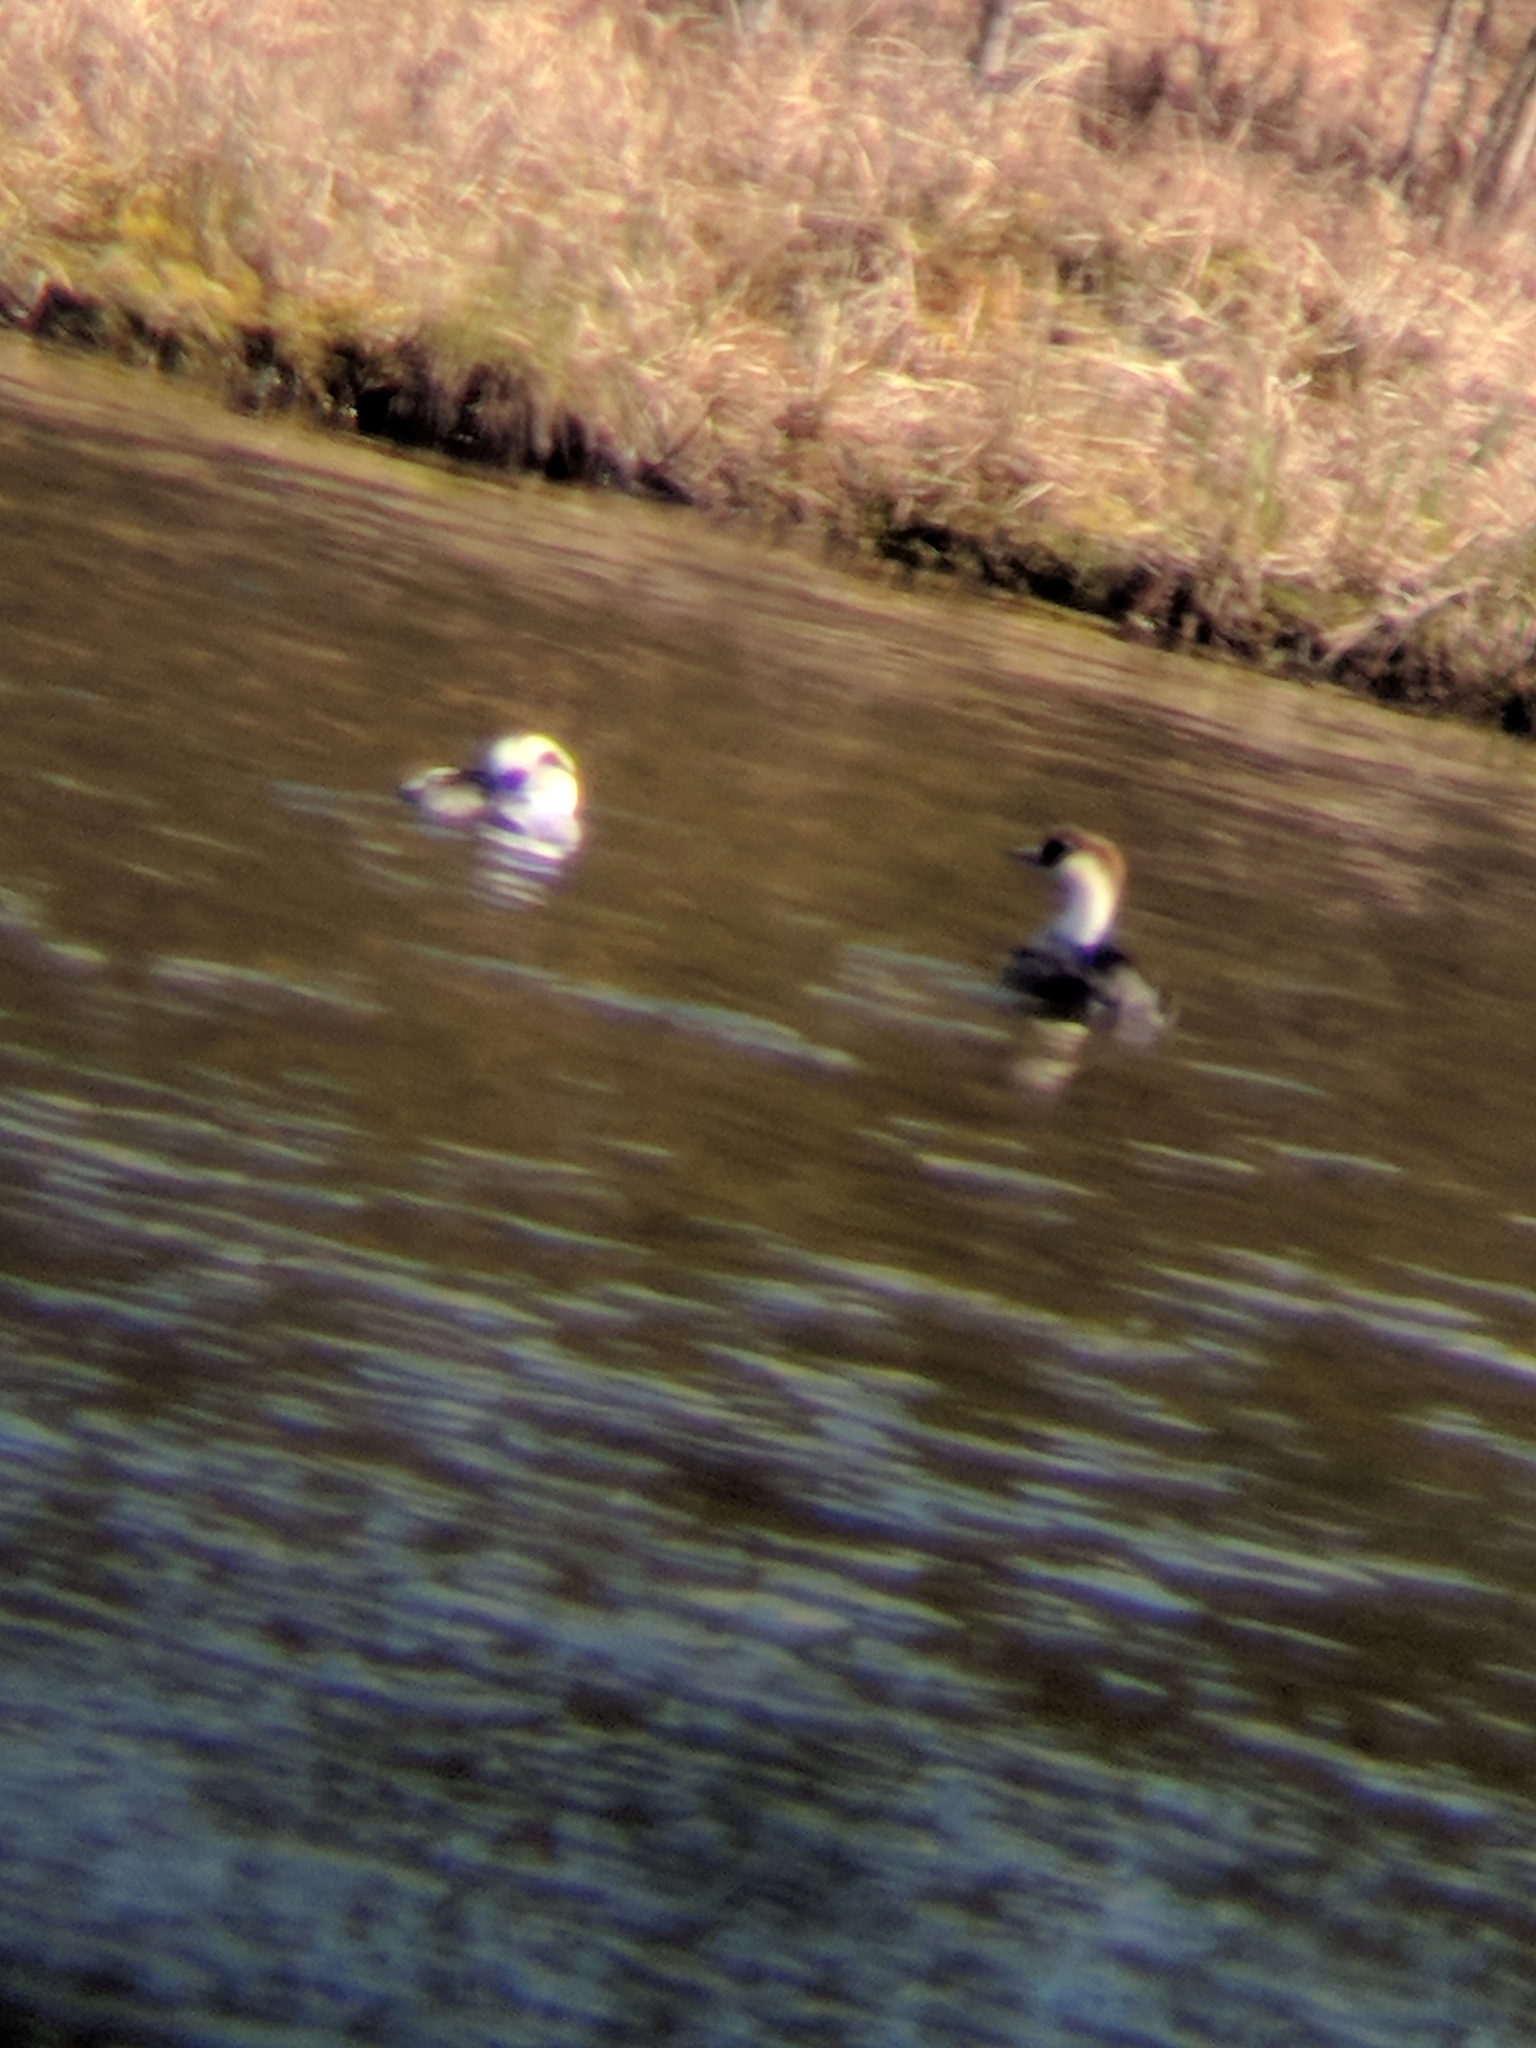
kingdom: Animalia
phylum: Chordata
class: Aves
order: Anseriformes
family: Anatidae
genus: Mergellus
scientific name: Mergellus albellus
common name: Smew
